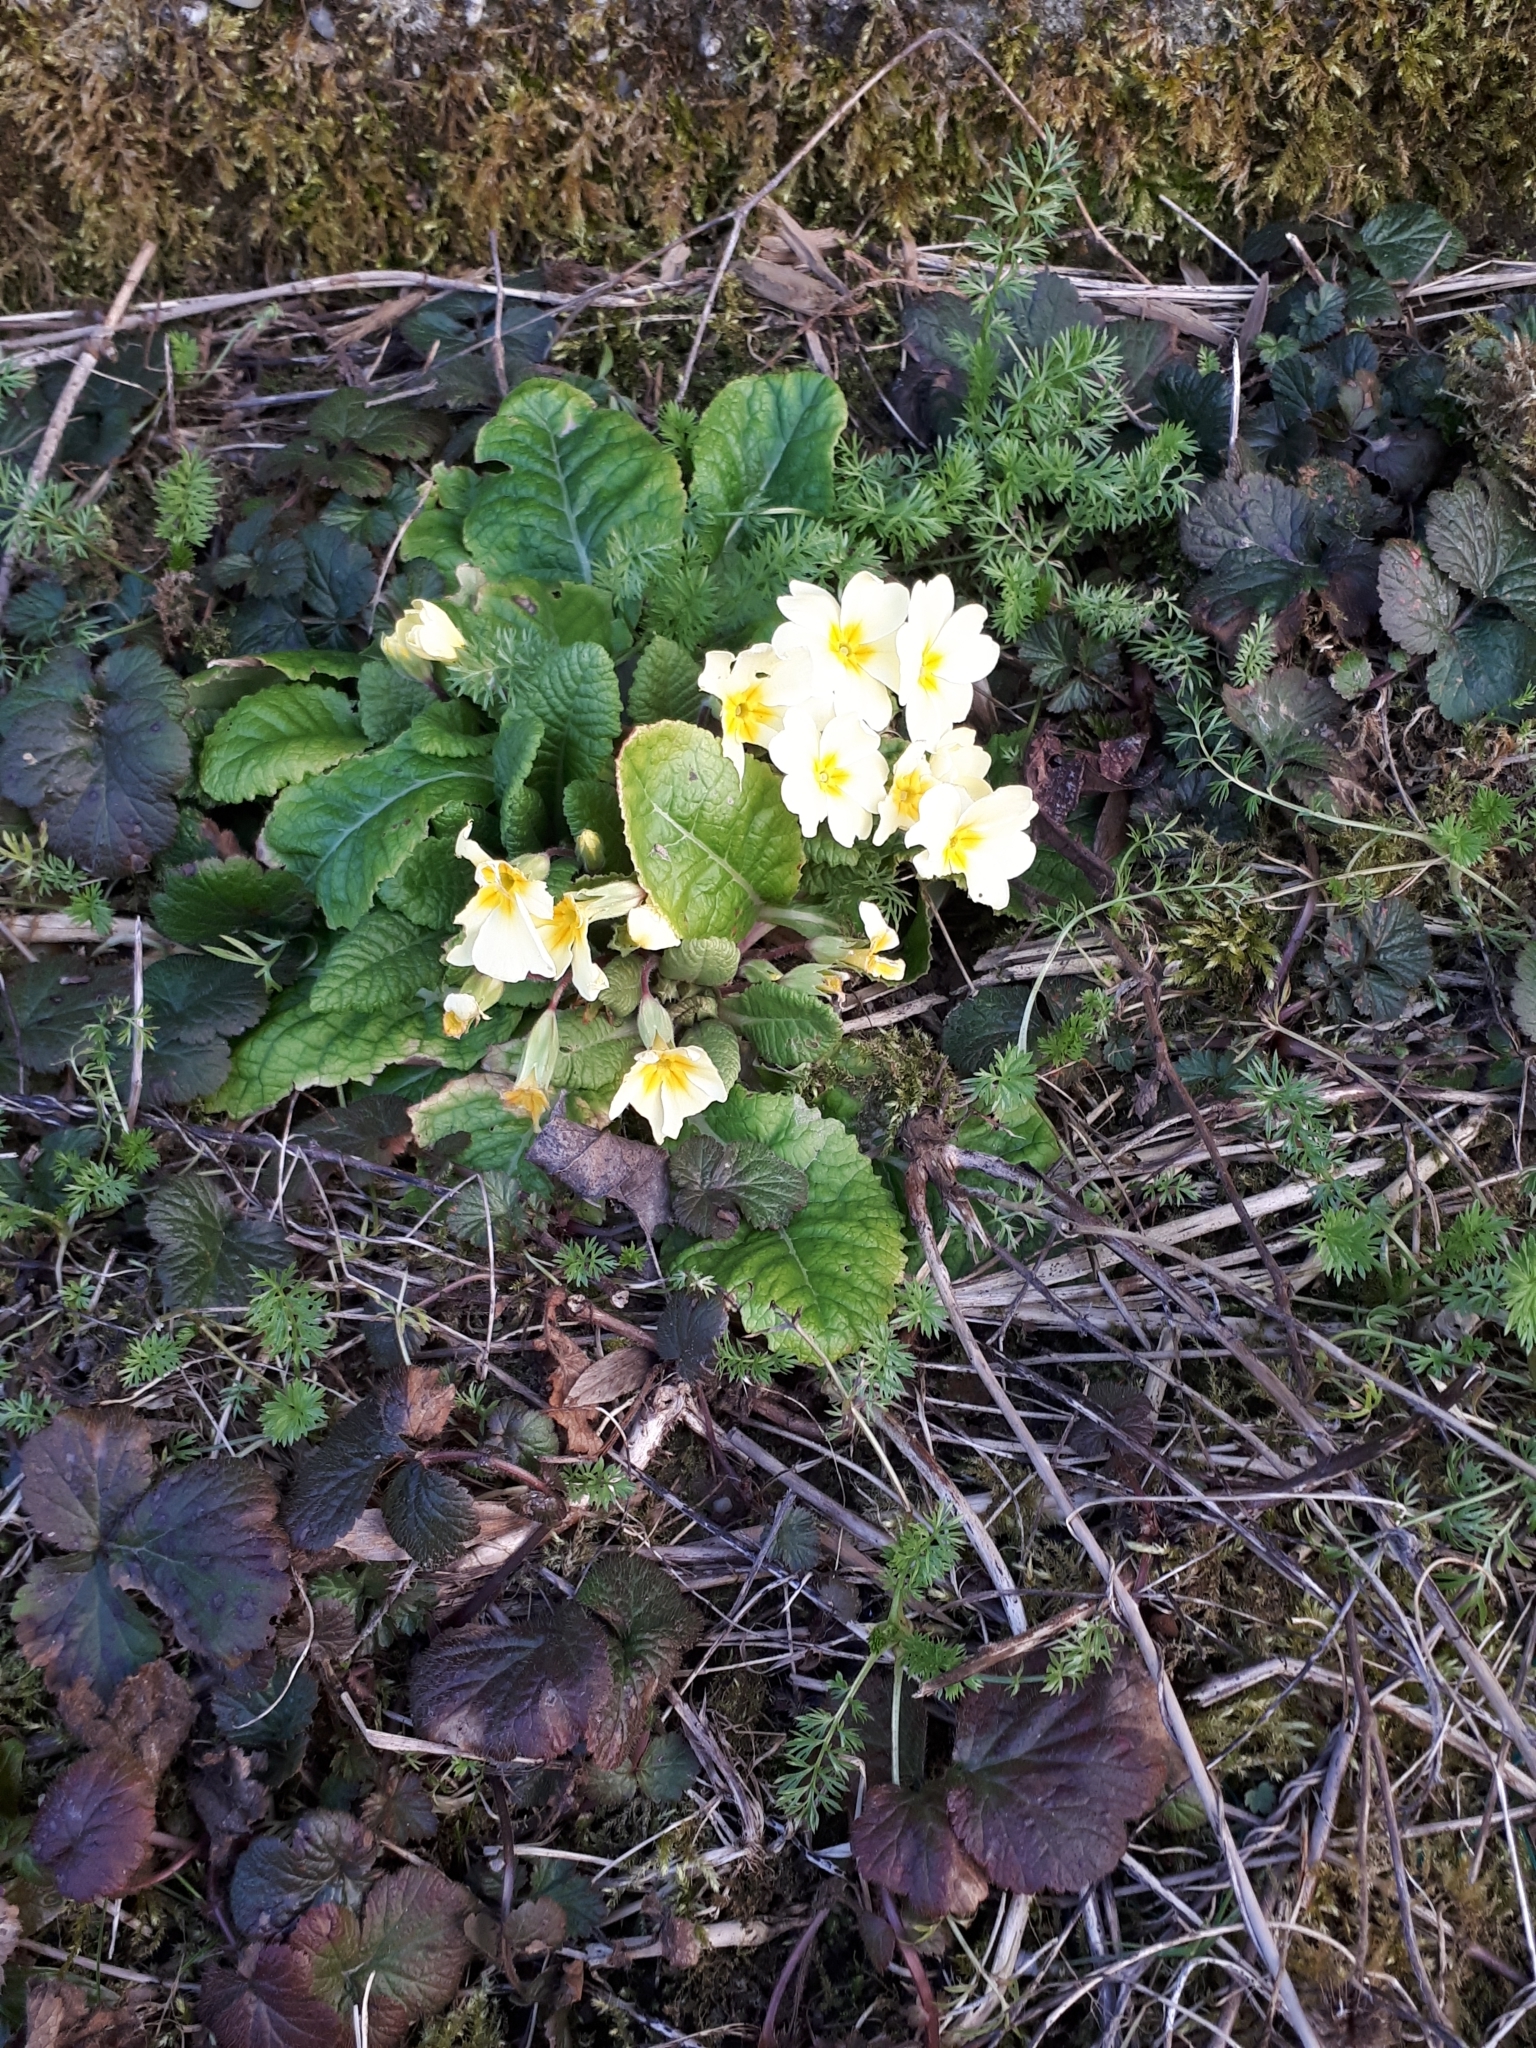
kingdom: Plantae
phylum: Tracheophyta
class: Magnoliopsida
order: Ericales
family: Primulaceae
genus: Primula
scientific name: Primula vulgaris
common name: Primrose
